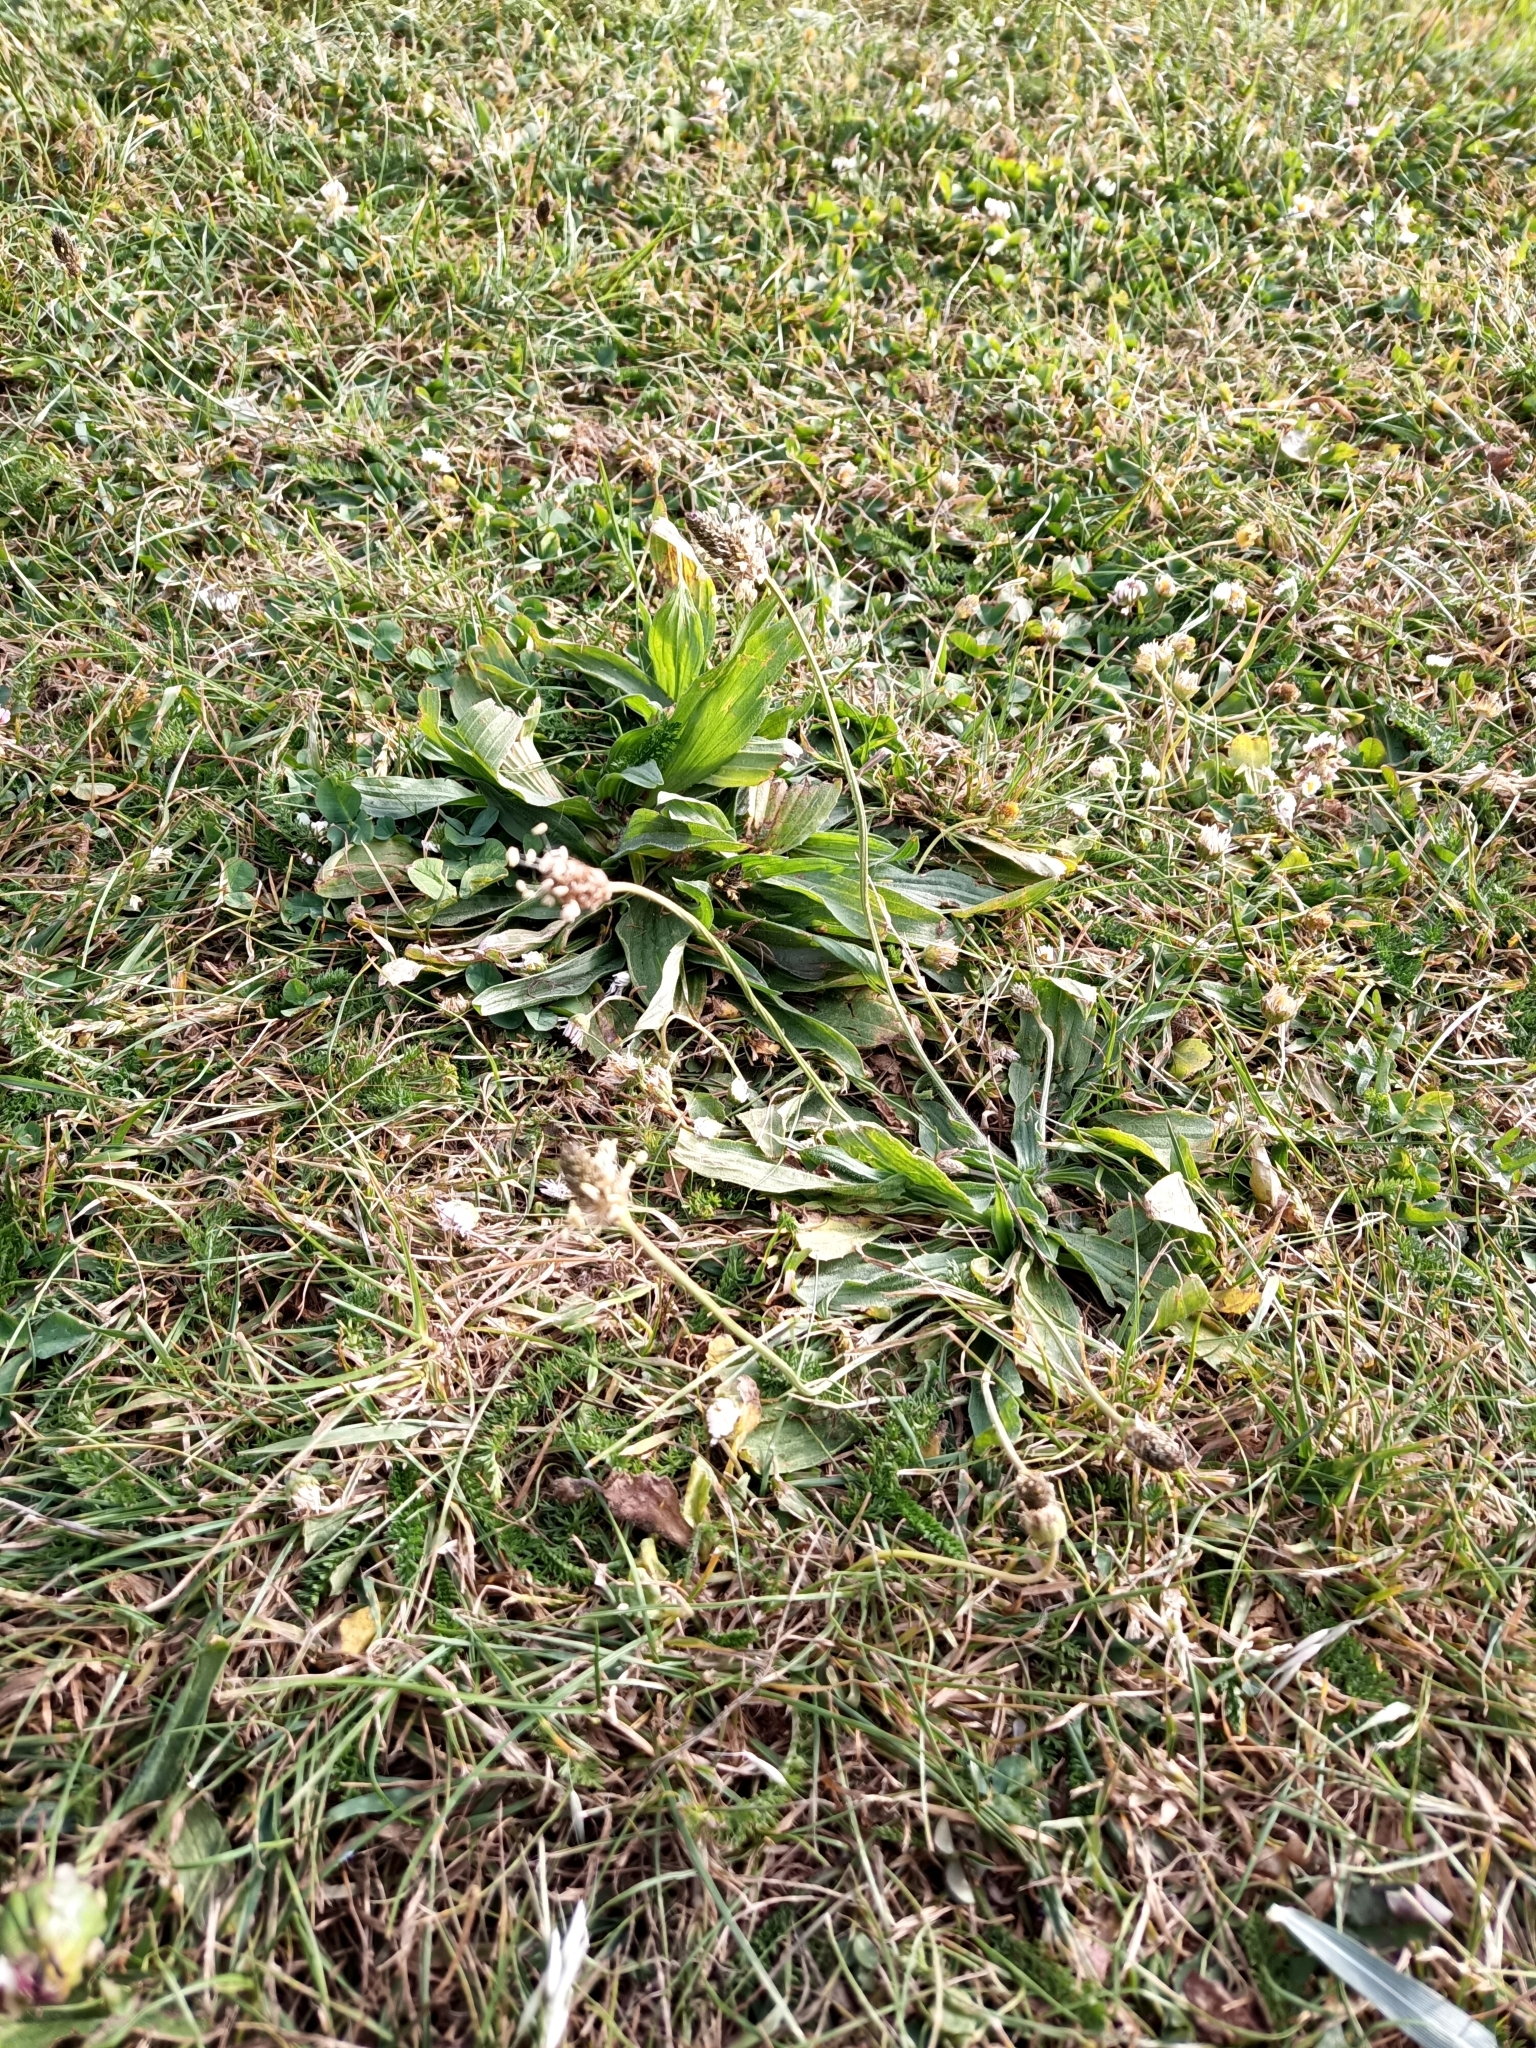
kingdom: Plantae
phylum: Tracheophyta
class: Magnoliopsida
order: Lamiales
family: Plantaginaceae
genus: Plantago
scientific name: Plantago lanceolata
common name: Ribwort plantain
